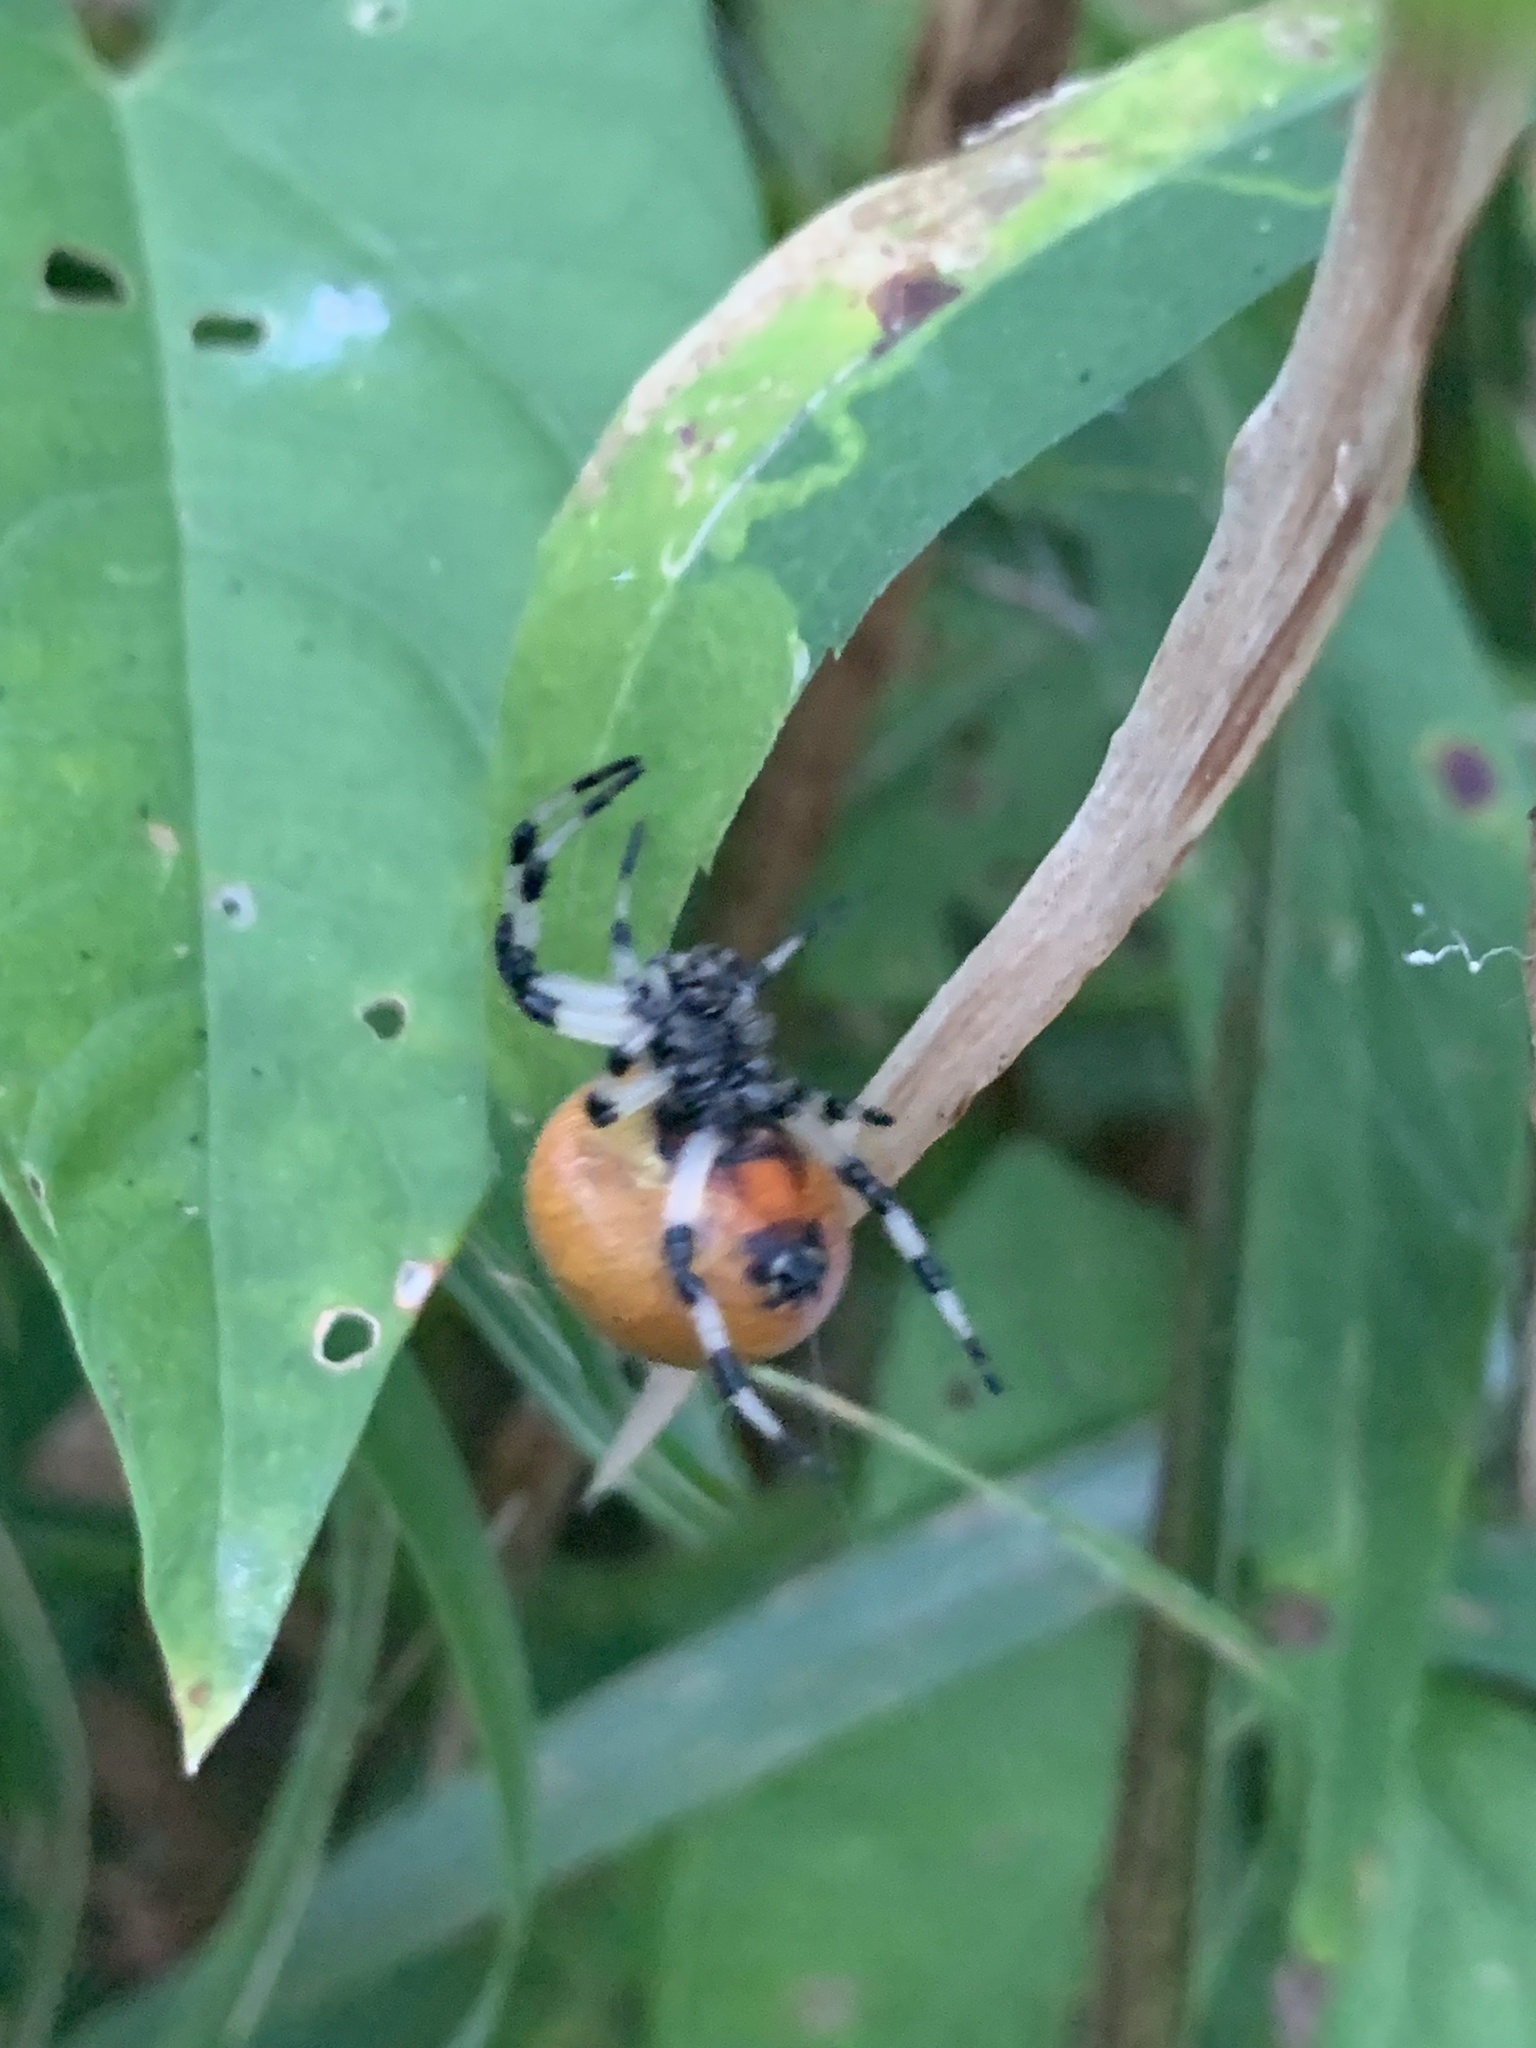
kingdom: Animalia
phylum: Arthropoda
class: Arachnida
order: Araneae
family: Araneidae
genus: Araneus
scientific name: Araneus trifolium
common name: Shamrock orbweaver
